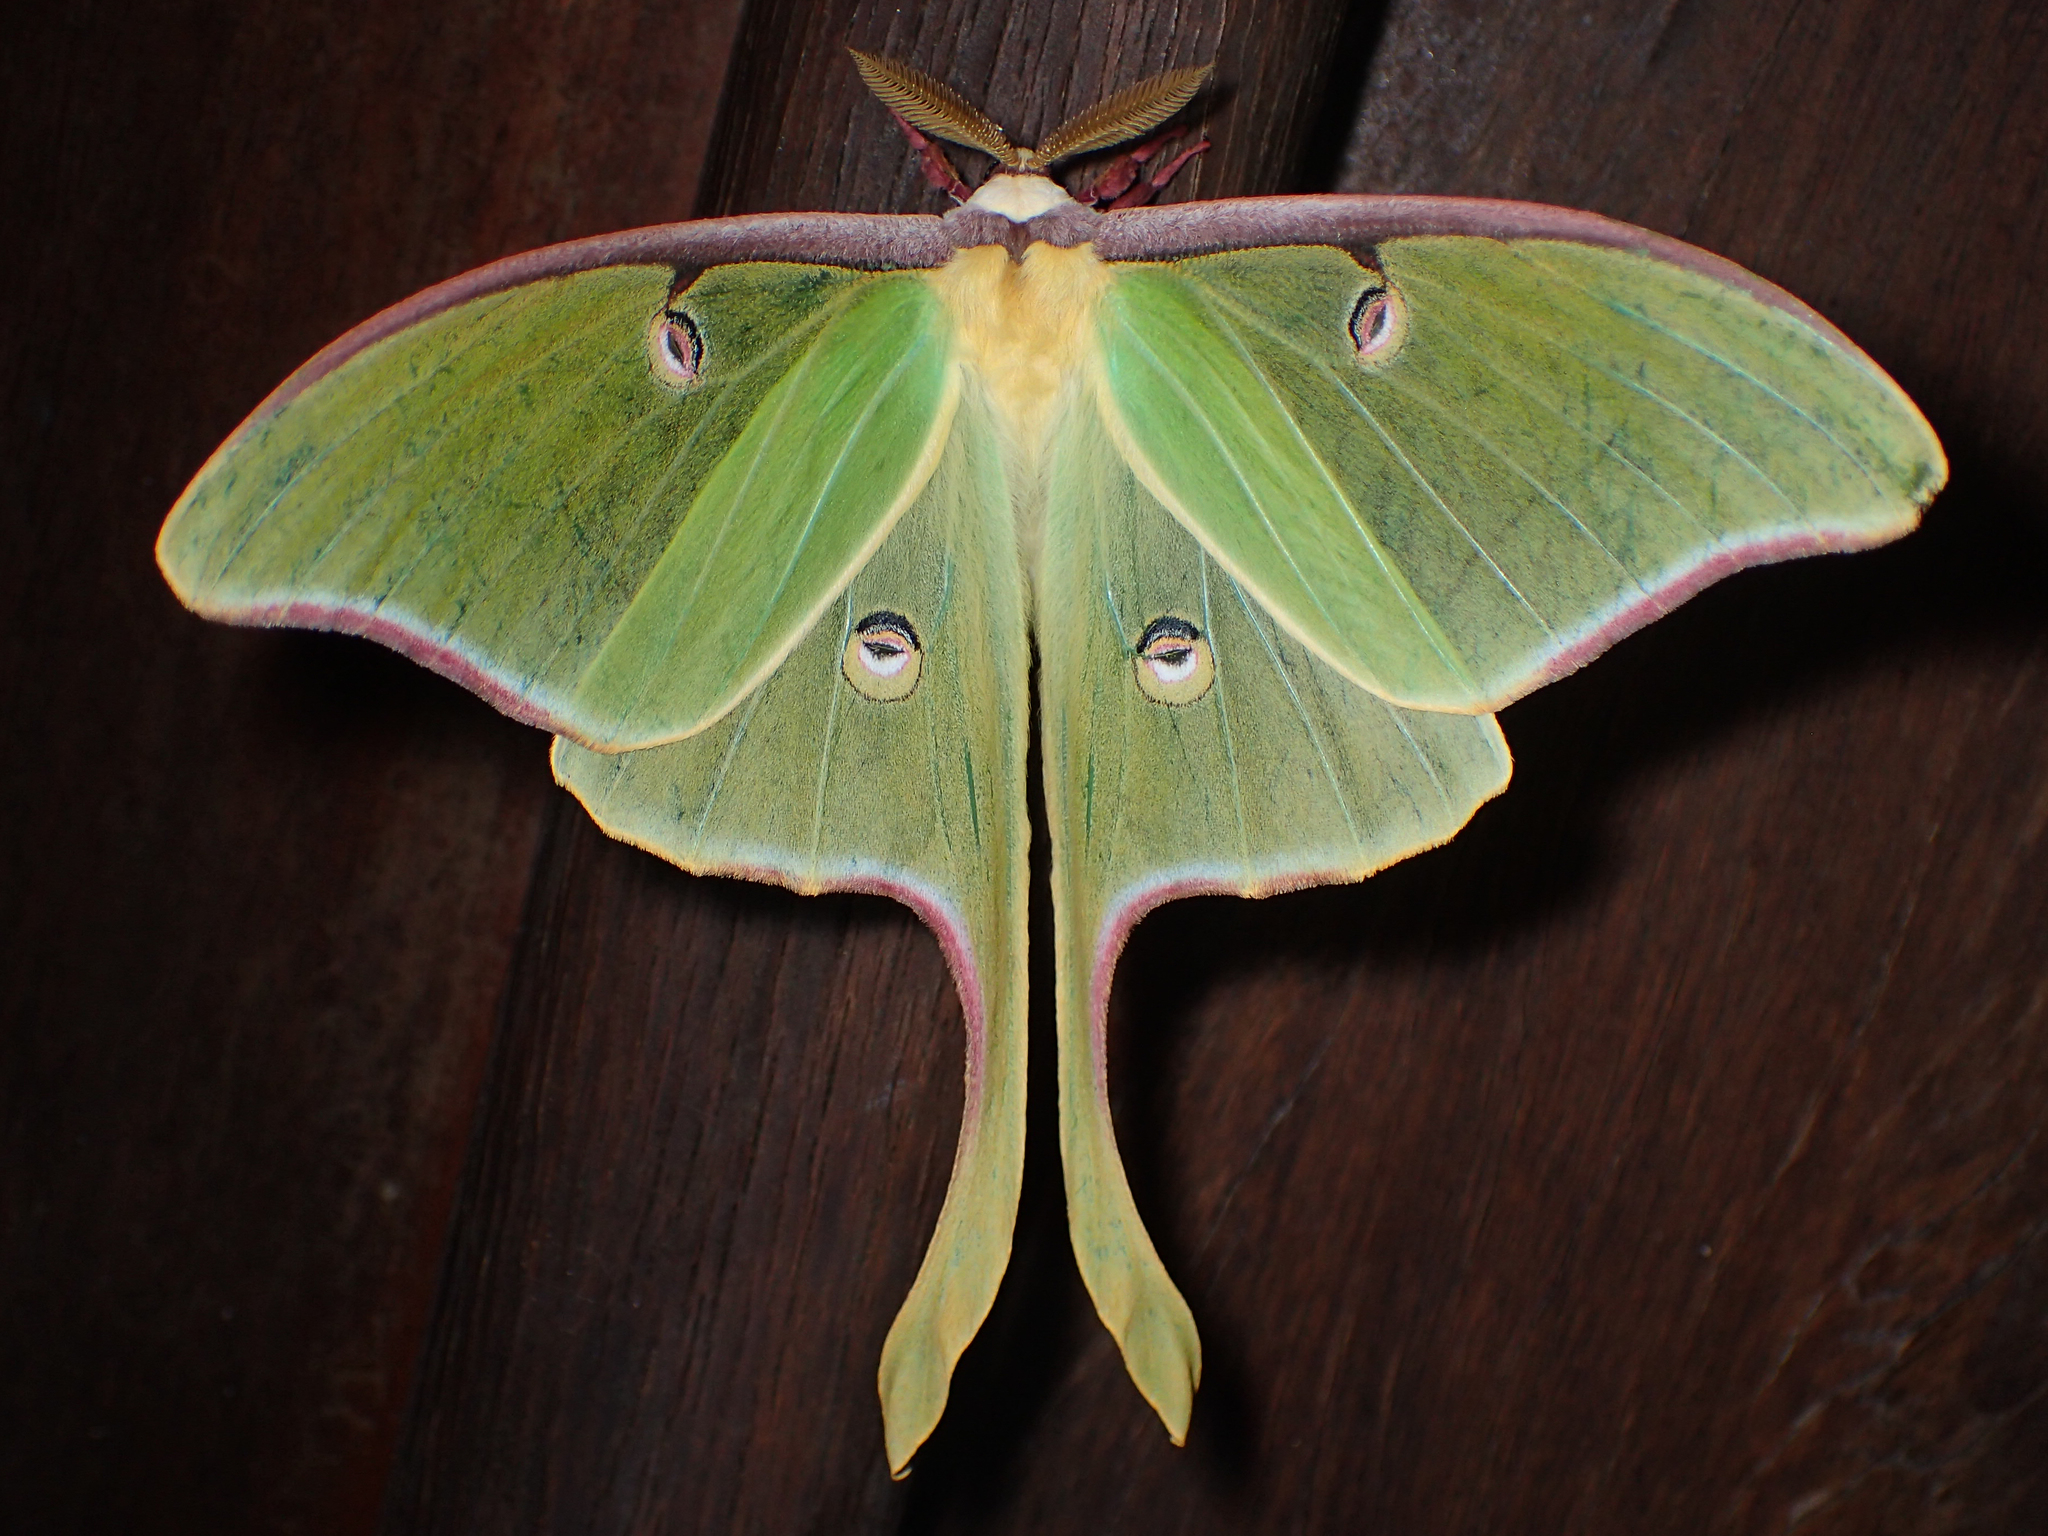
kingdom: Animalia
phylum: Arthropoda
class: Insecta
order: Lepidoptera
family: Saturniidae
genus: Actias
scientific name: Actias luna
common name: Luna moth
